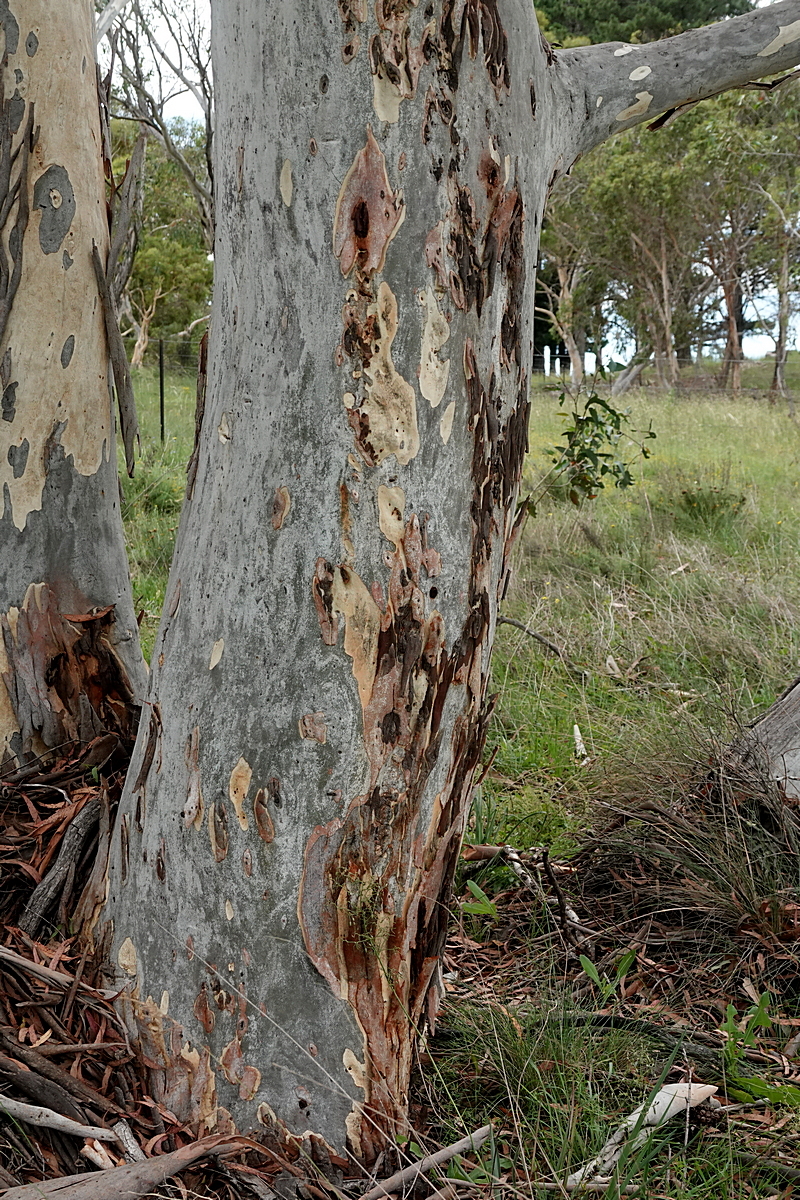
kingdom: Plantae
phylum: Tracheophyta
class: Magnoliopsida
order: Myrtales
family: Myrtaceae
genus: Eucalyptus
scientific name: Eucalyptus mannifera
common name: Manna gum
